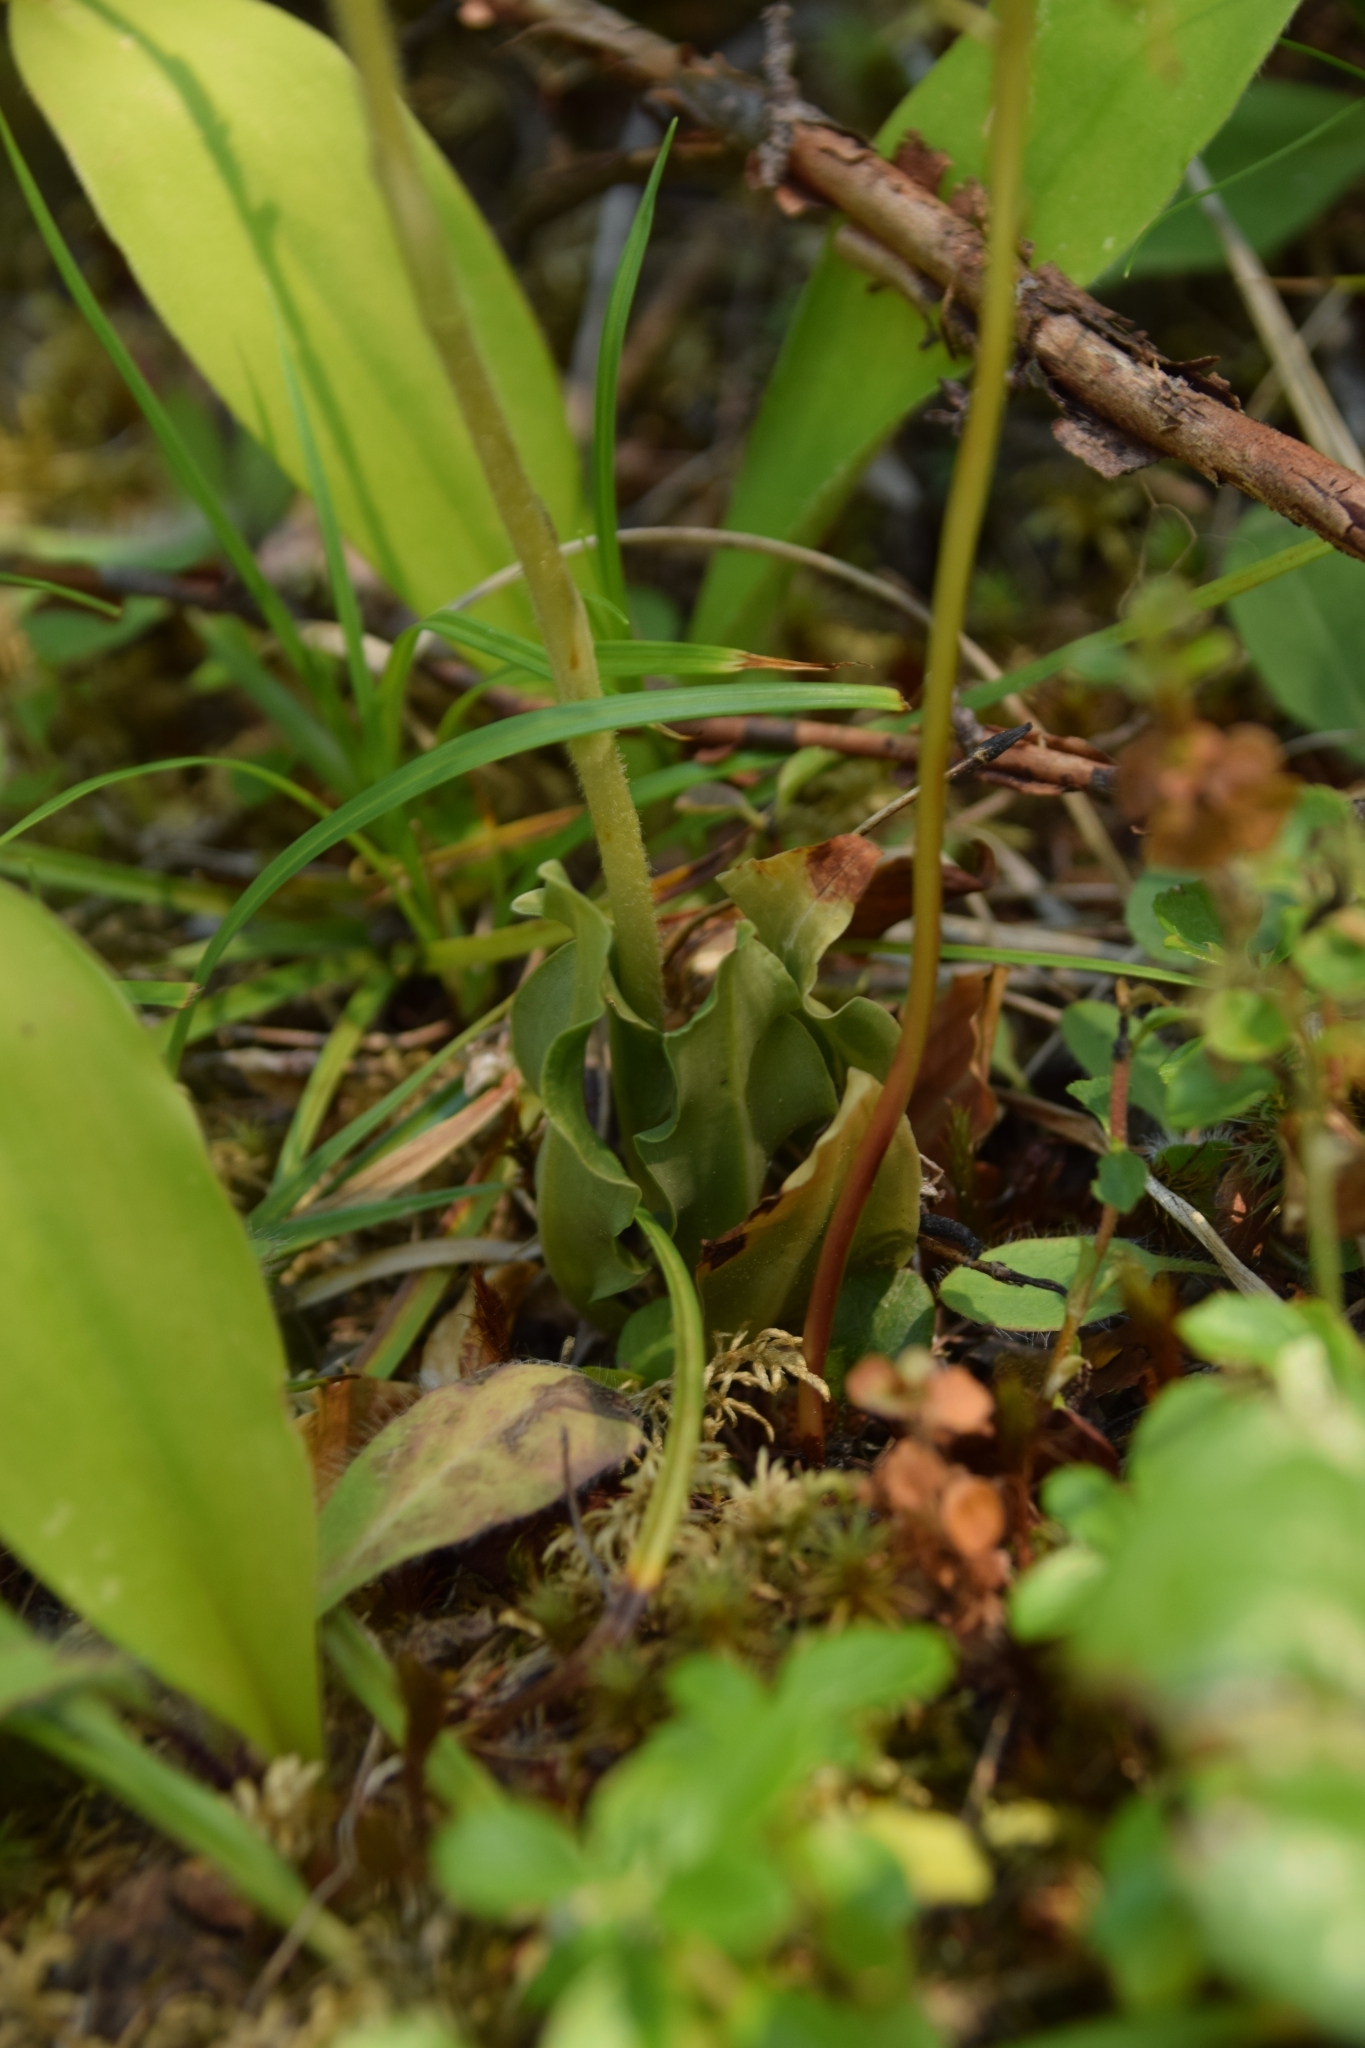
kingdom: Plantae
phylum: Tracheophyta
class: Liliopsida
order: Asparagales
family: Orchidaceae
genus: Goodyera
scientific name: Goodyera oblongifolia
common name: Giant rattlesnake-plantain
